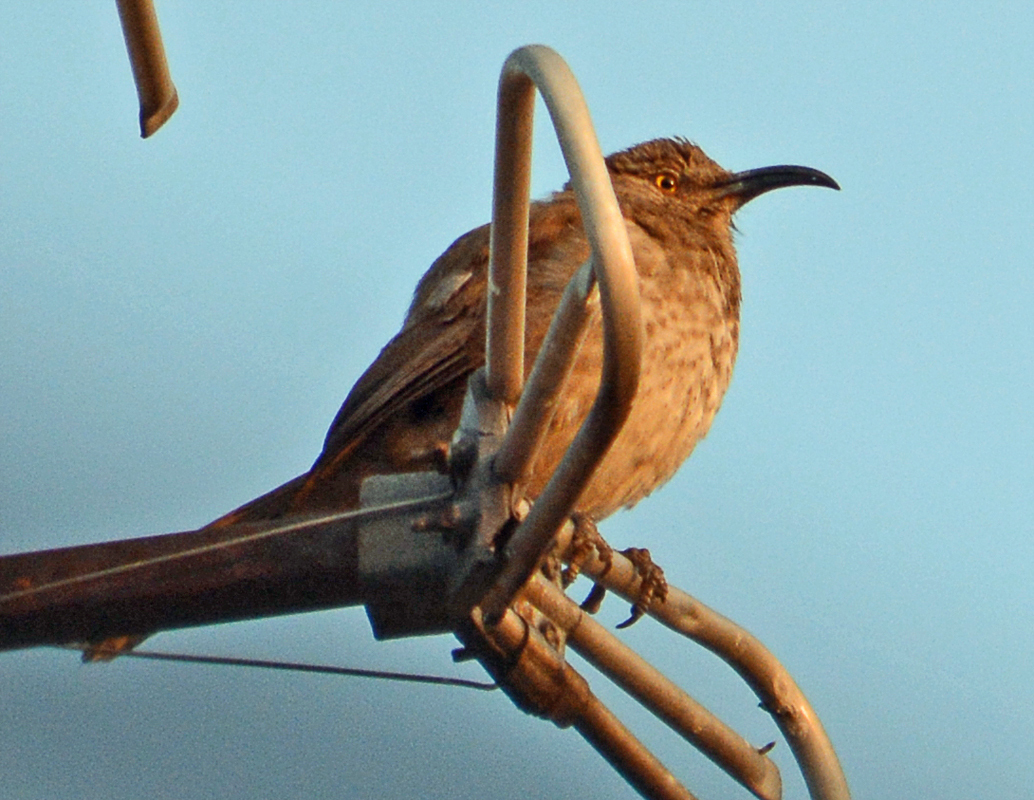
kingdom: Animalia
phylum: Chordata
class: Aves
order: Passeriformes
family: Mimidae
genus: Toxostoma
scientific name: Toxostoma curvirostre
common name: Curve-billed thrasher
